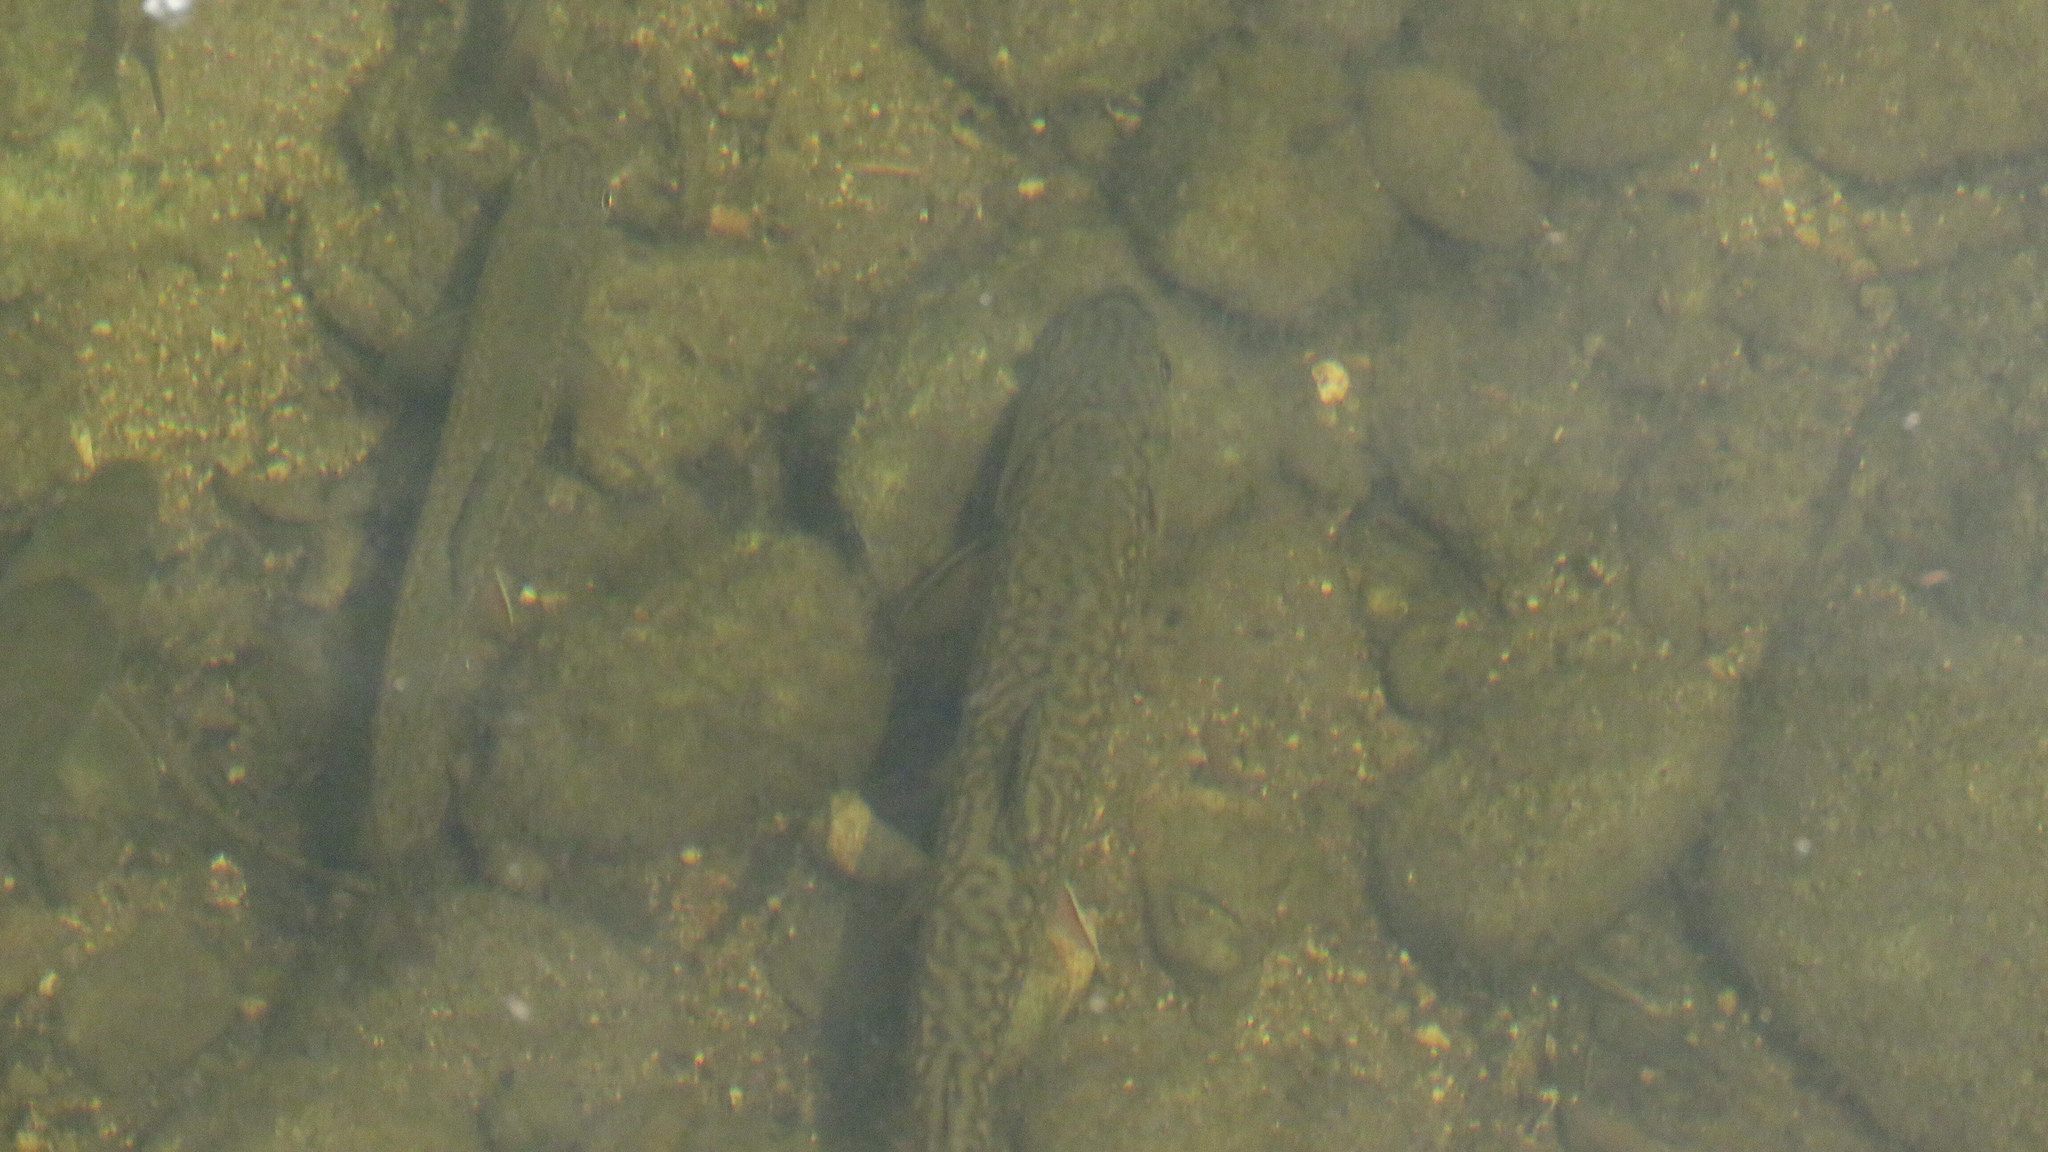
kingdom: Animalia
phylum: Chordata
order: Salmoniformes
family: Salmonidae
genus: Salvelinus
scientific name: Salvelinus fontinalis
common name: Brook trout
